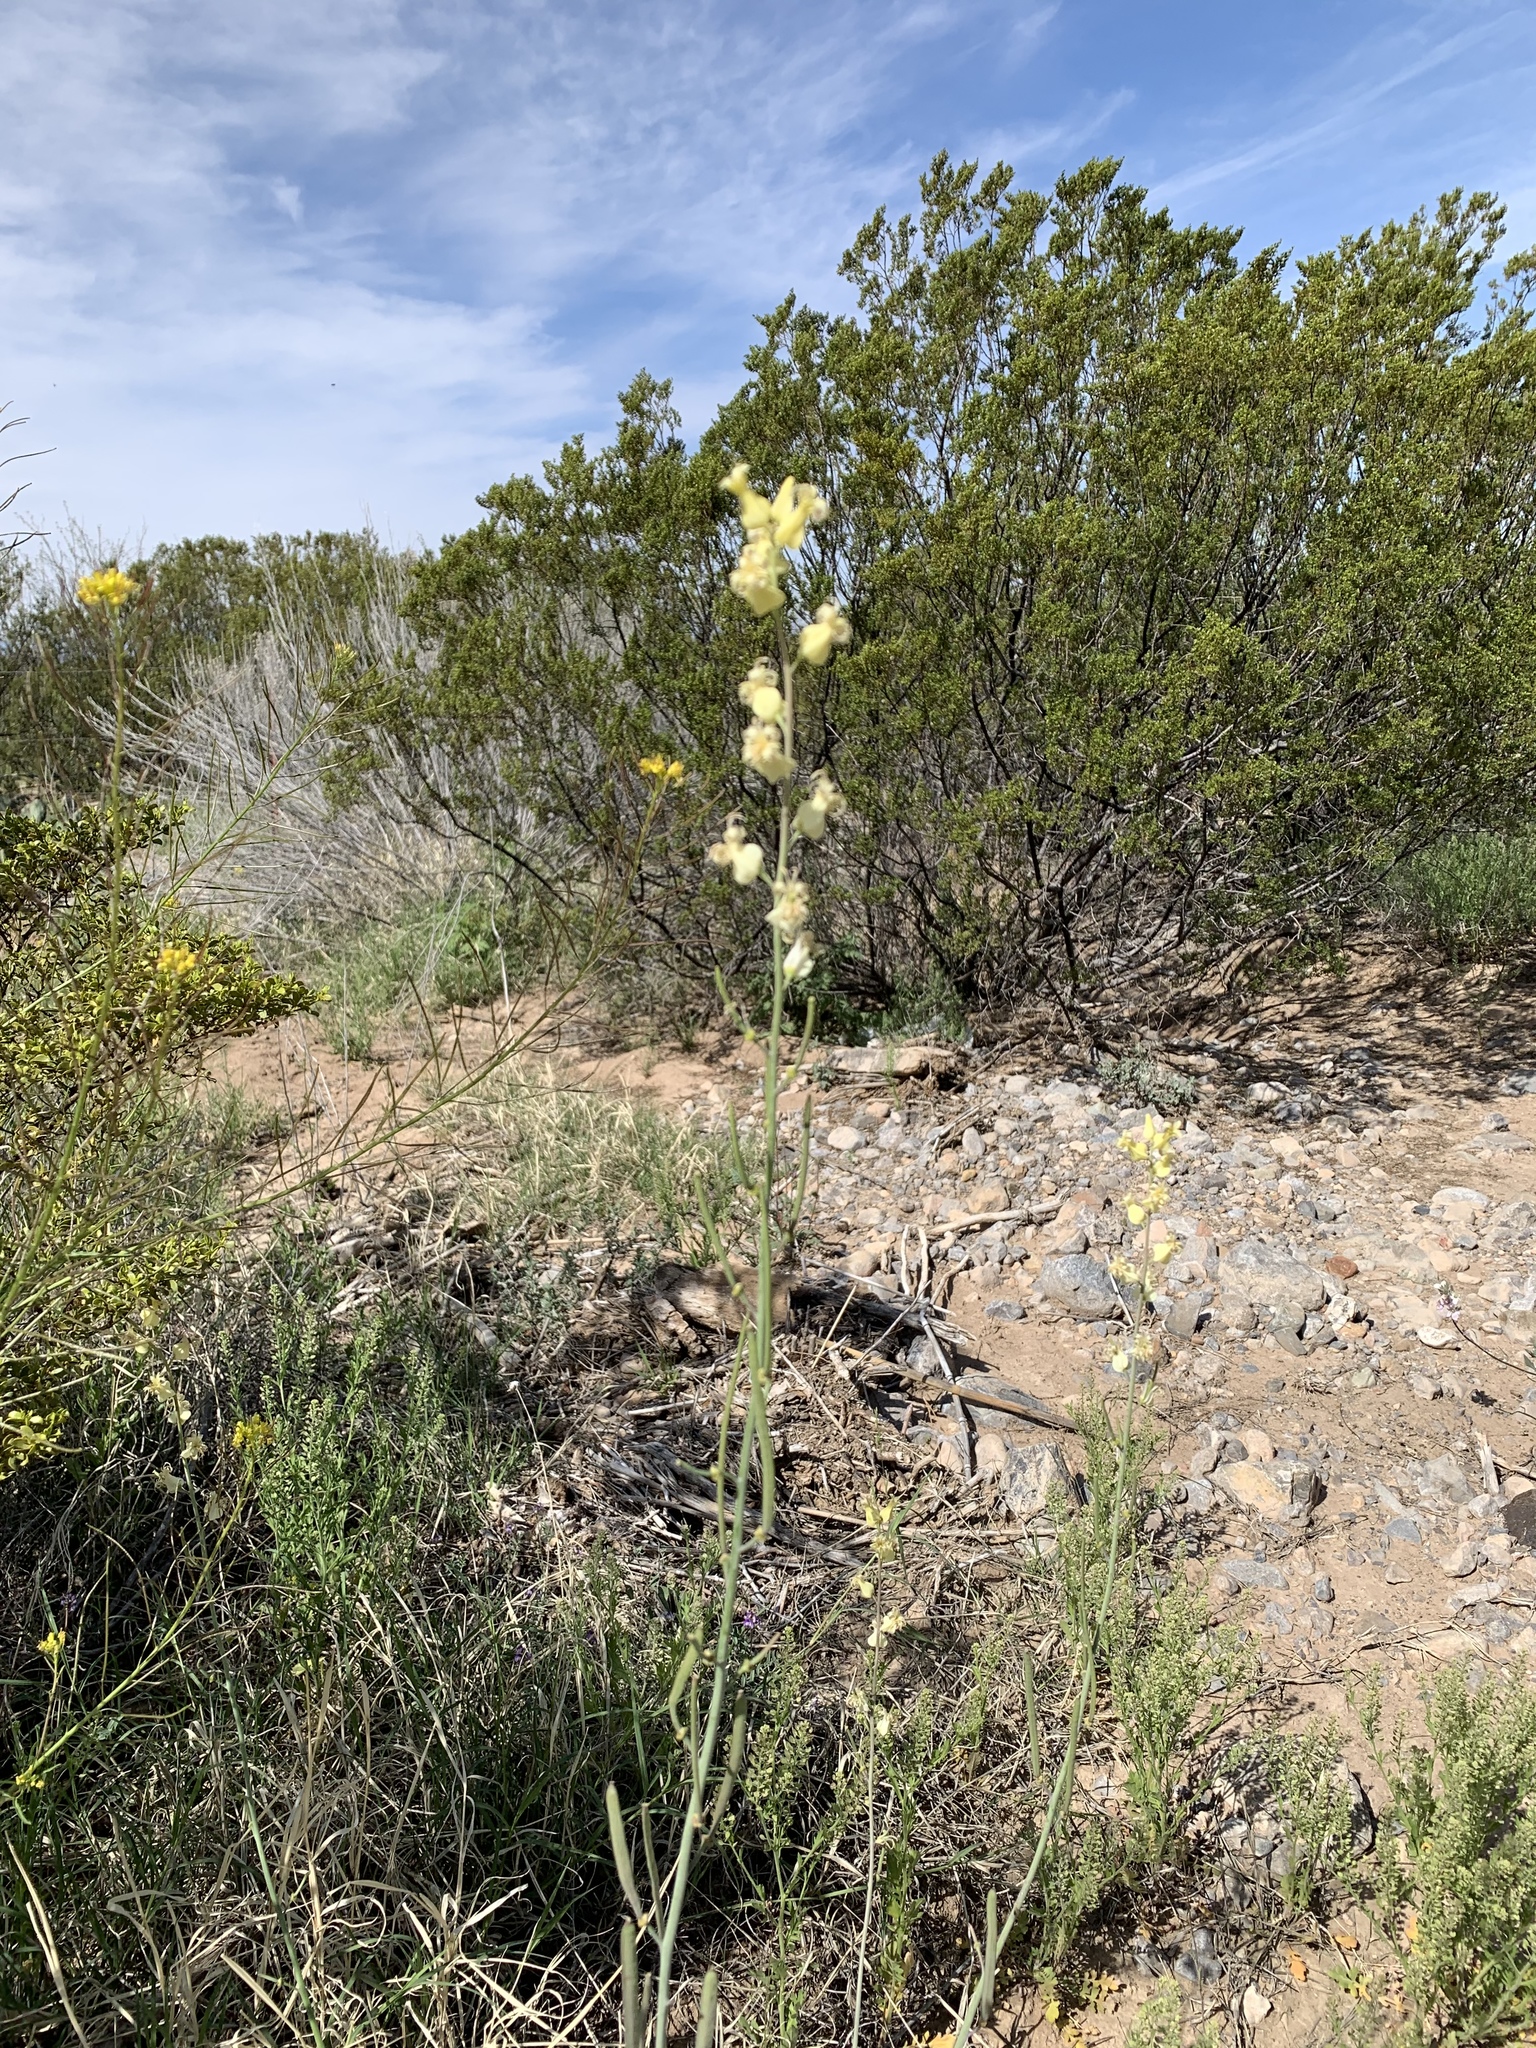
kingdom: Plantae
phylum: Tracheophyta
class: Magnoliopsida
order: Brassicales
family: Brassicaceae
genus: Streptanthus
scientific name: Streptanthus carinatus
